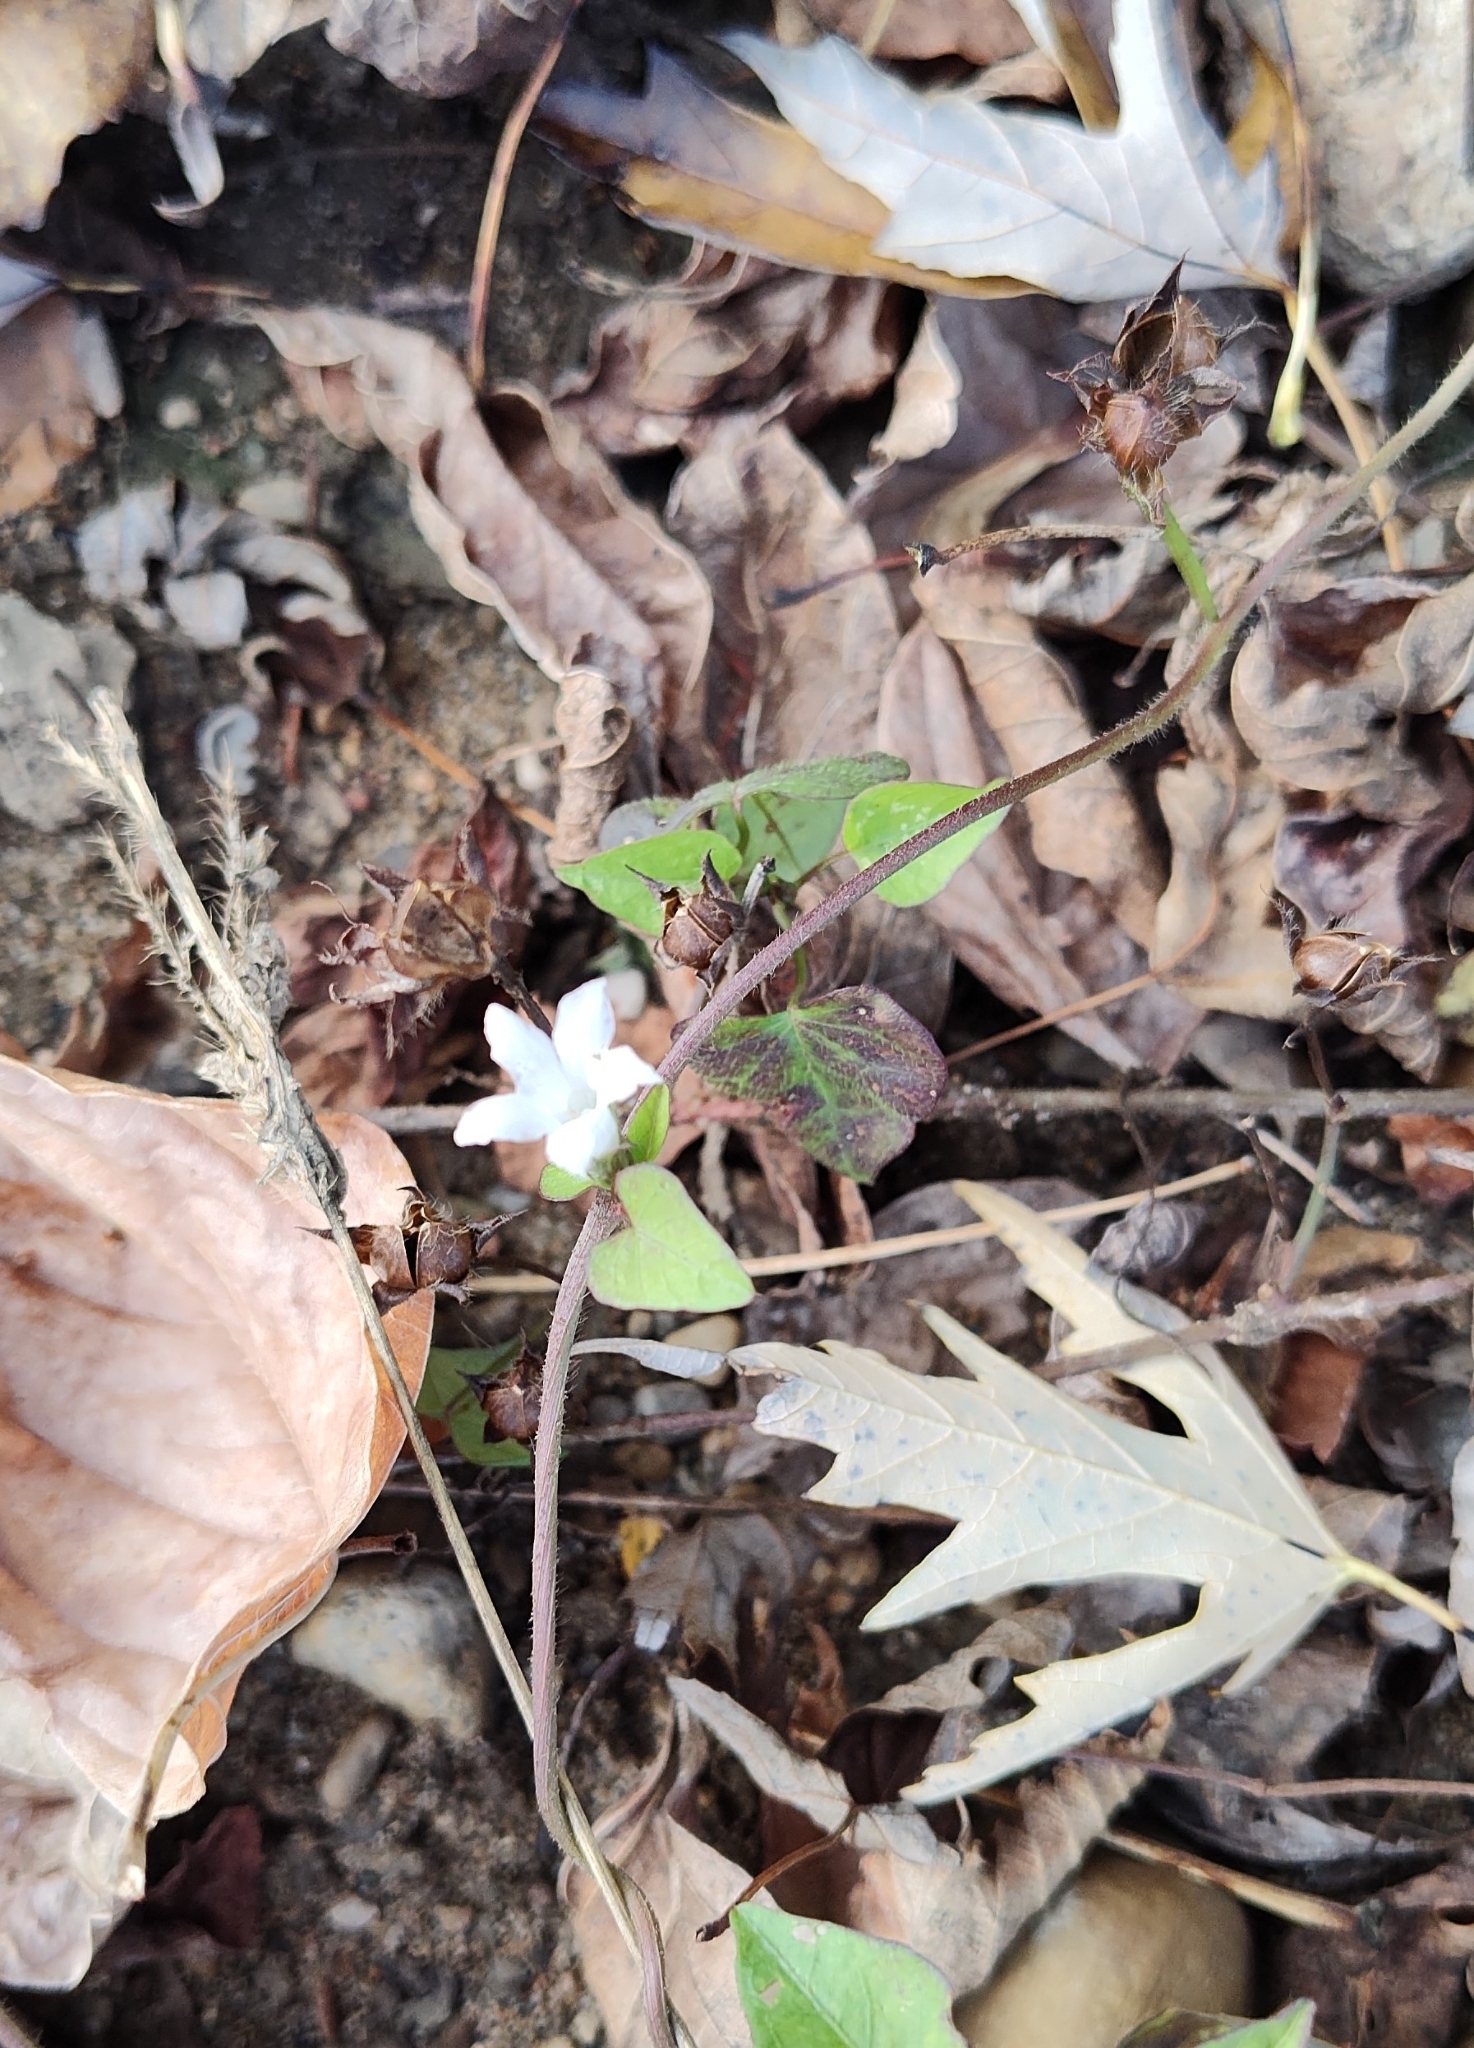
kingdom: Plantae
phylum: Tracheophyta
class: Magnoliopsida
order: Solanales
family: Convolvulaceae
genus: Ipomoea
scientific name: Ipomoea lacunosa
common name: White morning-glory
